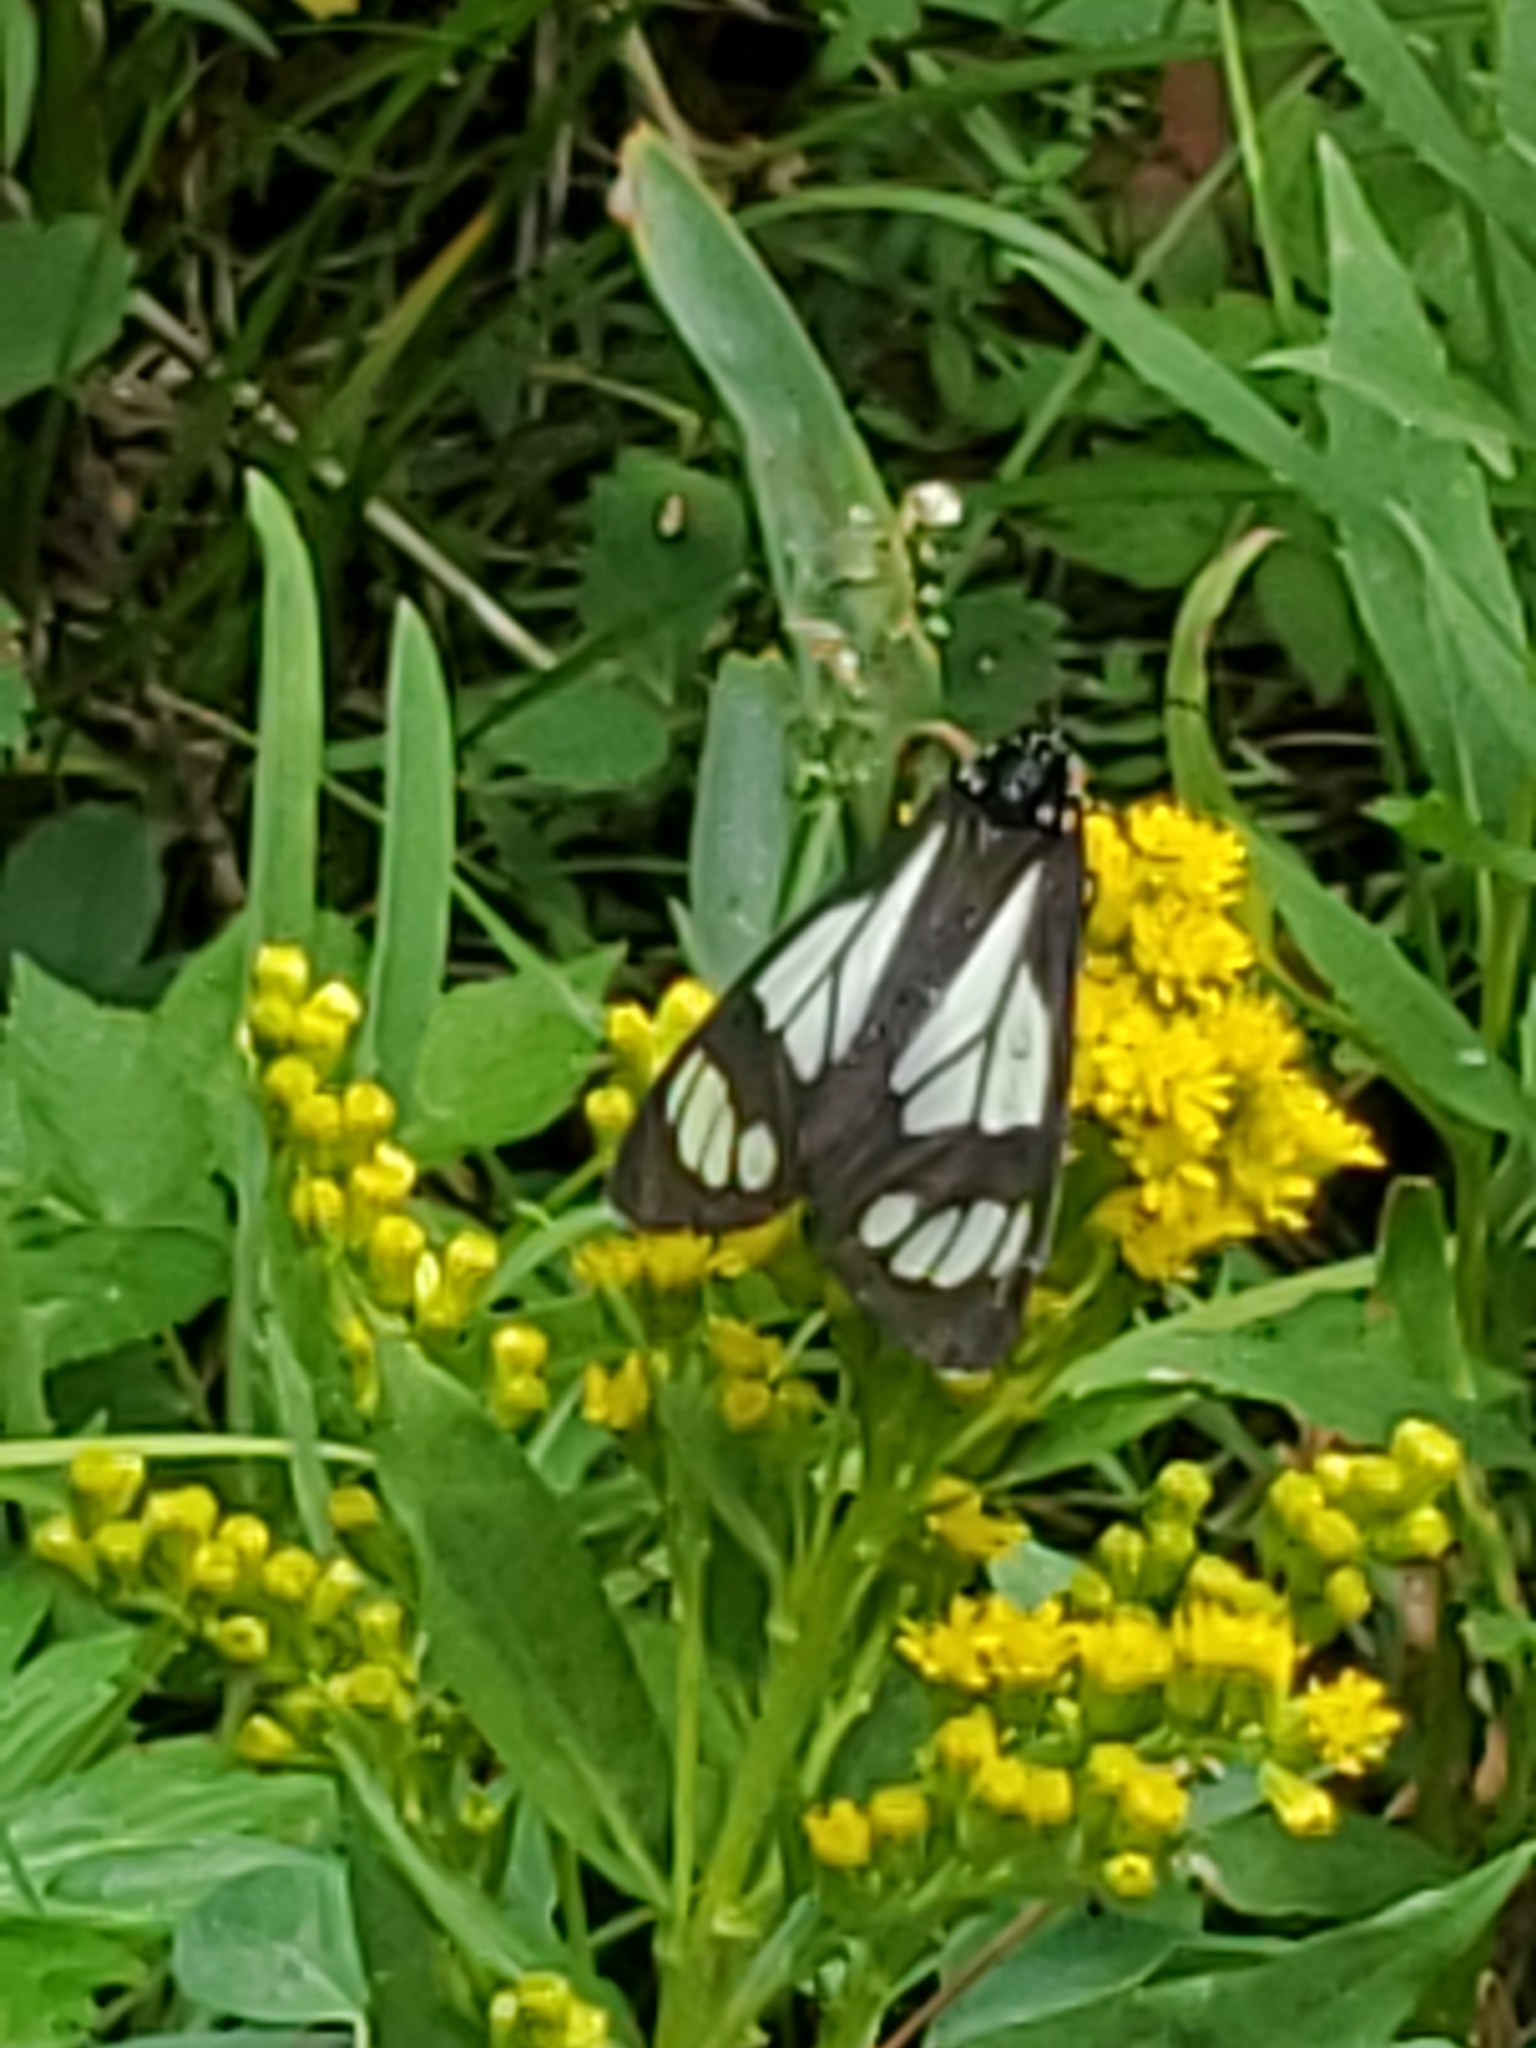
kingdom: Animalia
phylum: Arthropoda
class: Insecta
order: Lepidoptera
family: Erebidae
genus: Gnophaela
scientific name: Gnophaela vermiculata
